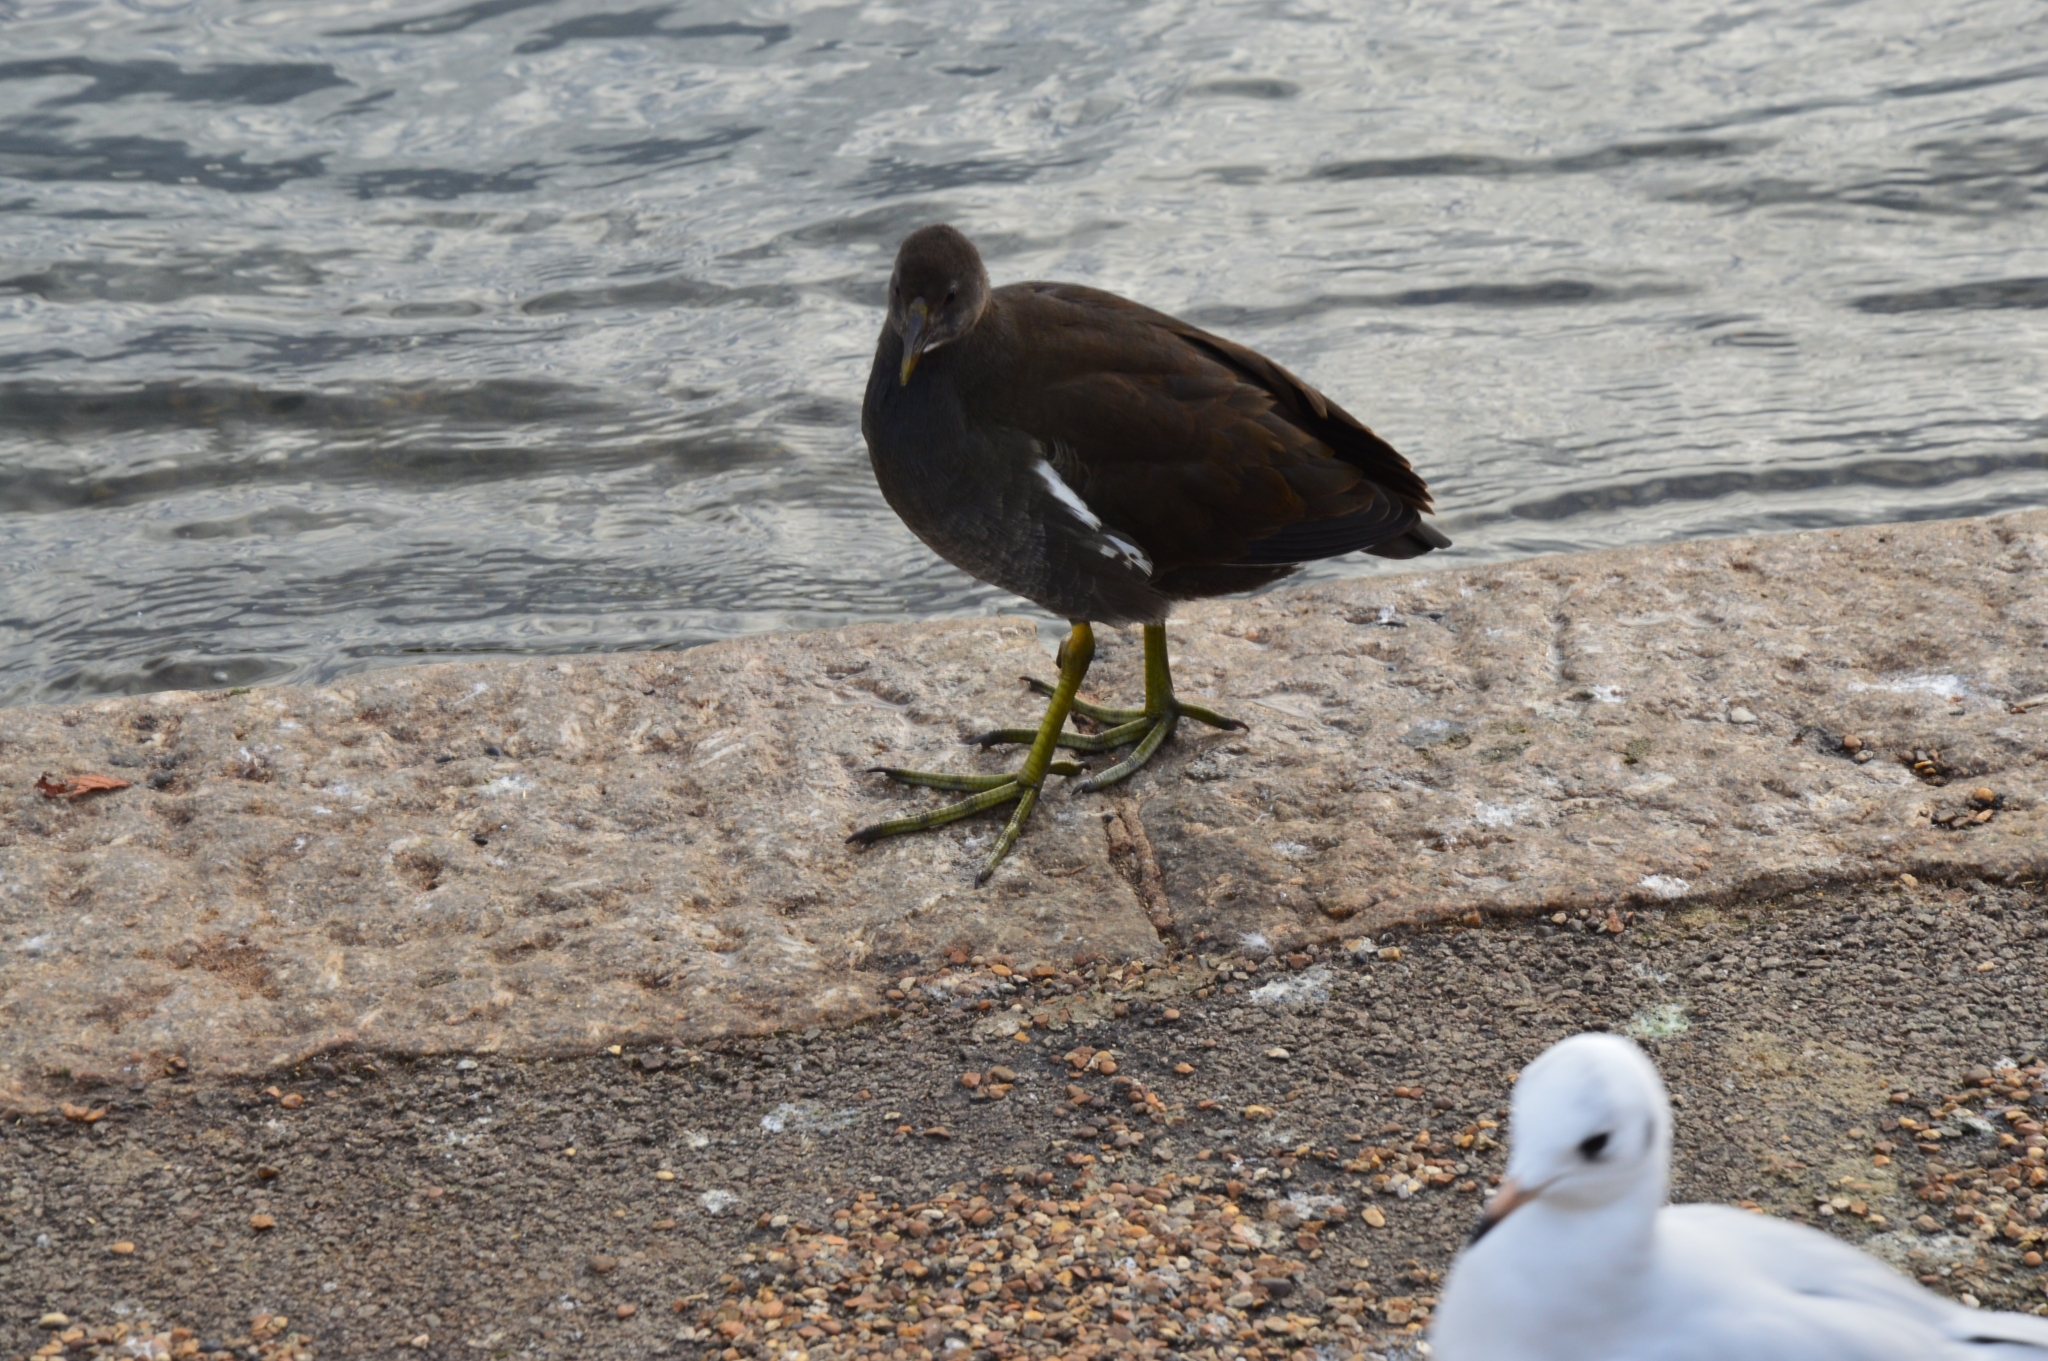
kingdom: Animalia
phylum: Chordata
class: Aves
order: Gruiformes
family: Rallidae
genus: Gallinula
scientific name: Gallinula chloropus
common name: Common moorhen
